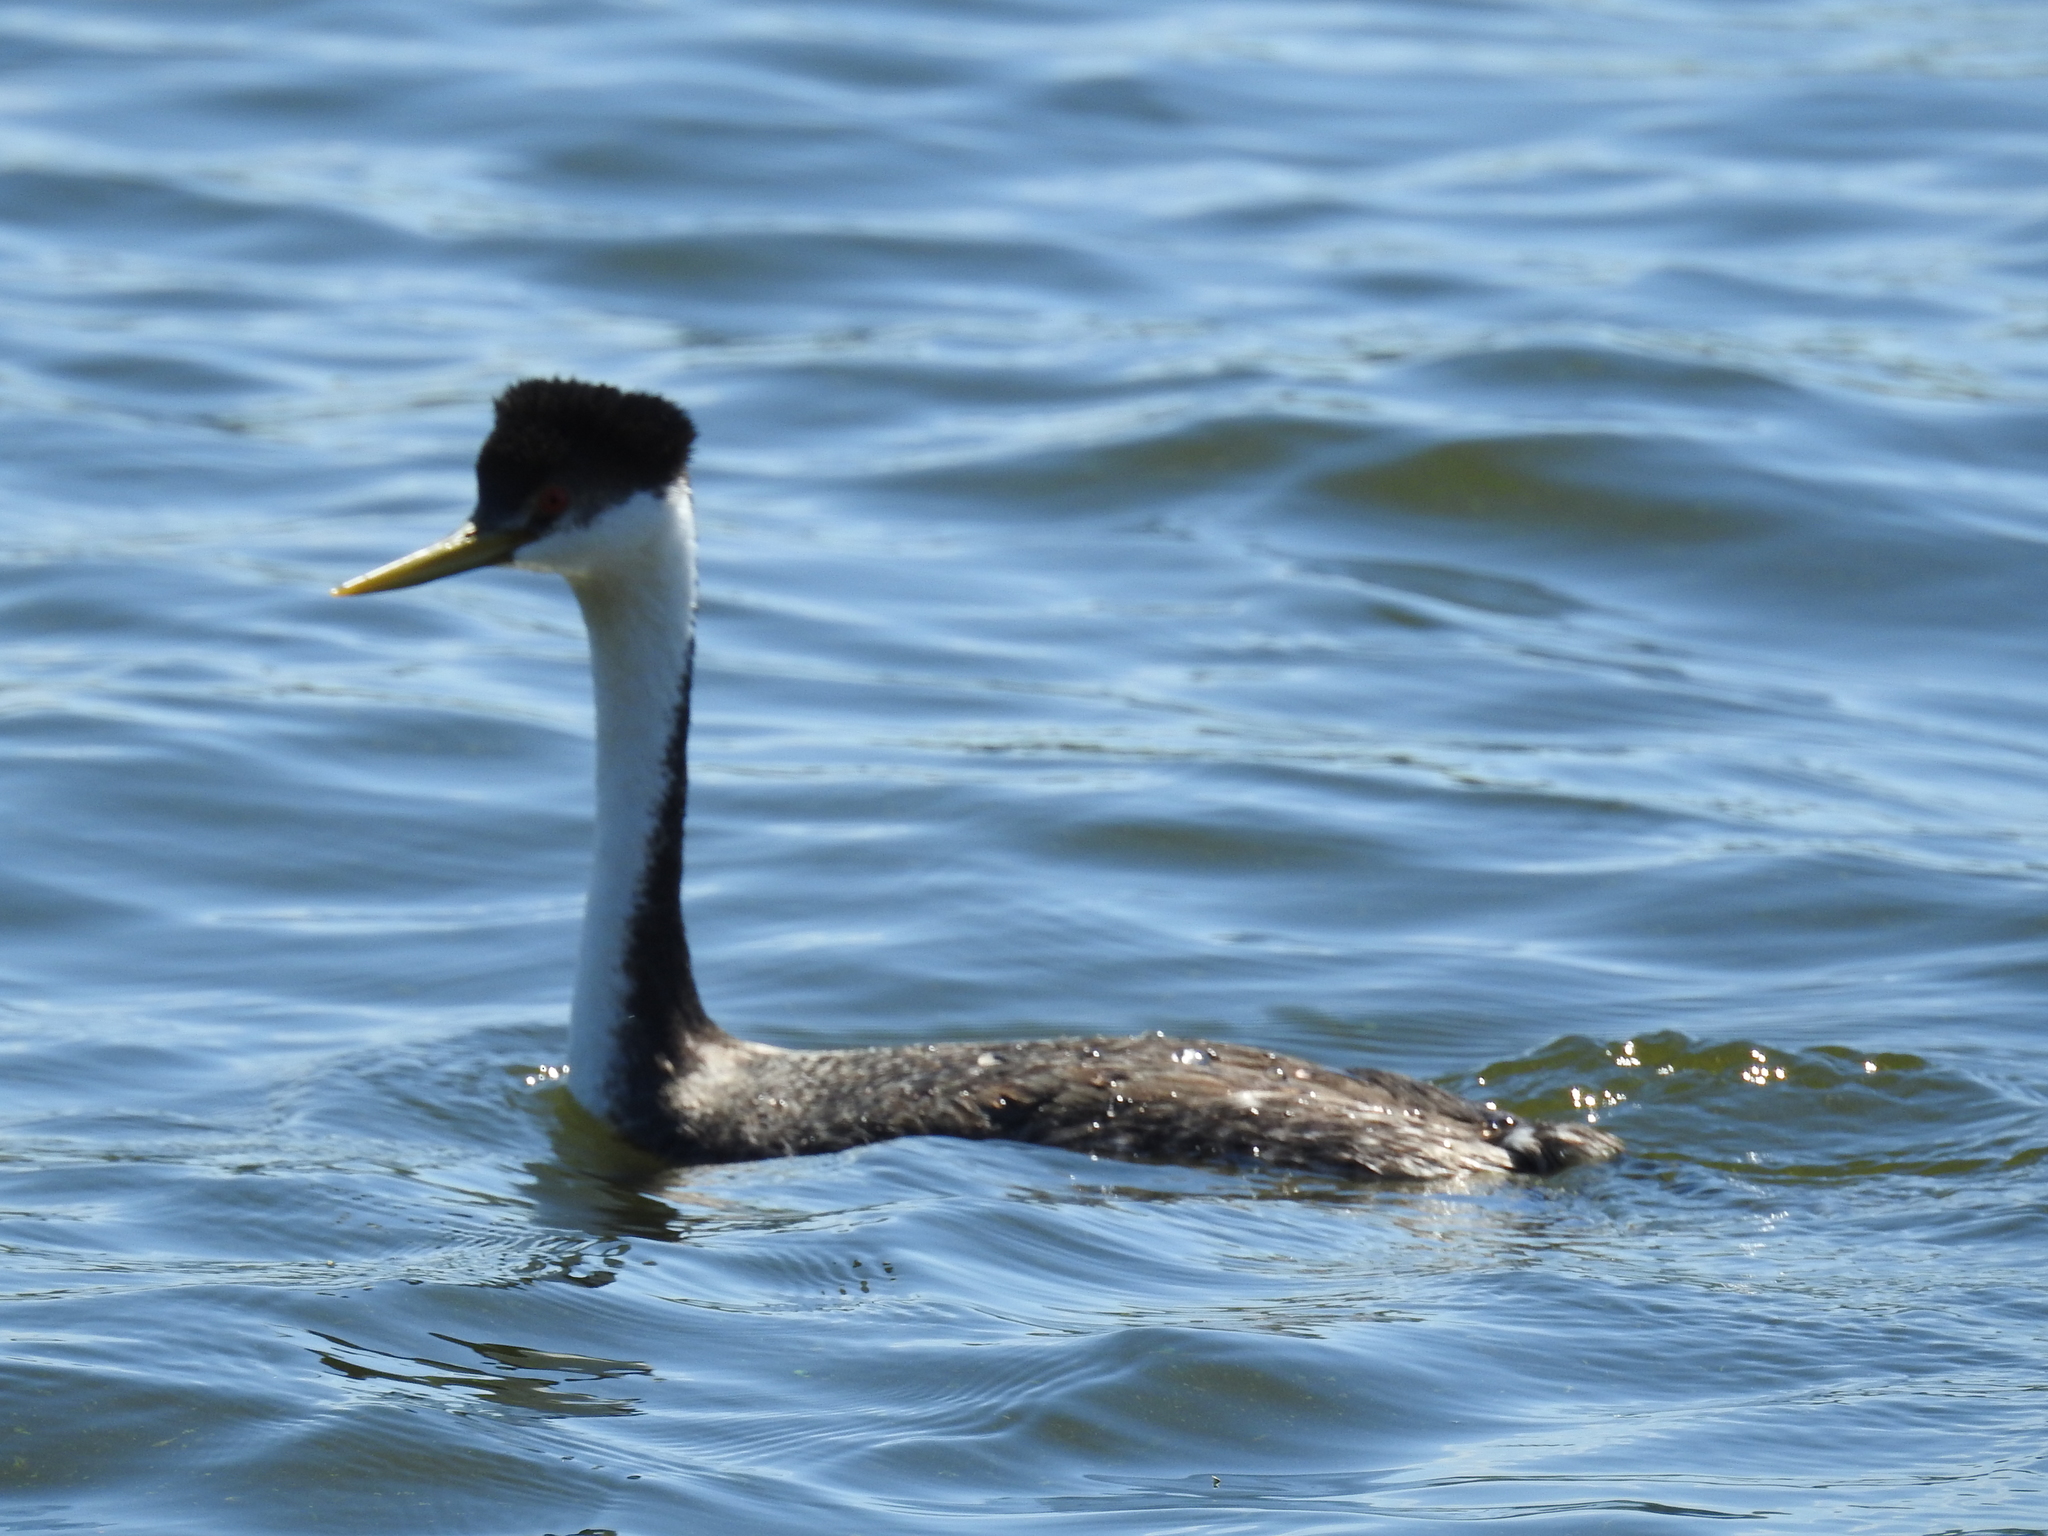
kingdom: Animalia
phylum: Chordata
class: Aves
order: Podicipediformes
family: Podicipedidae
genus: Aechmophorus
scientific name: Aechmophorus occidentalis
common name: Western grebe
